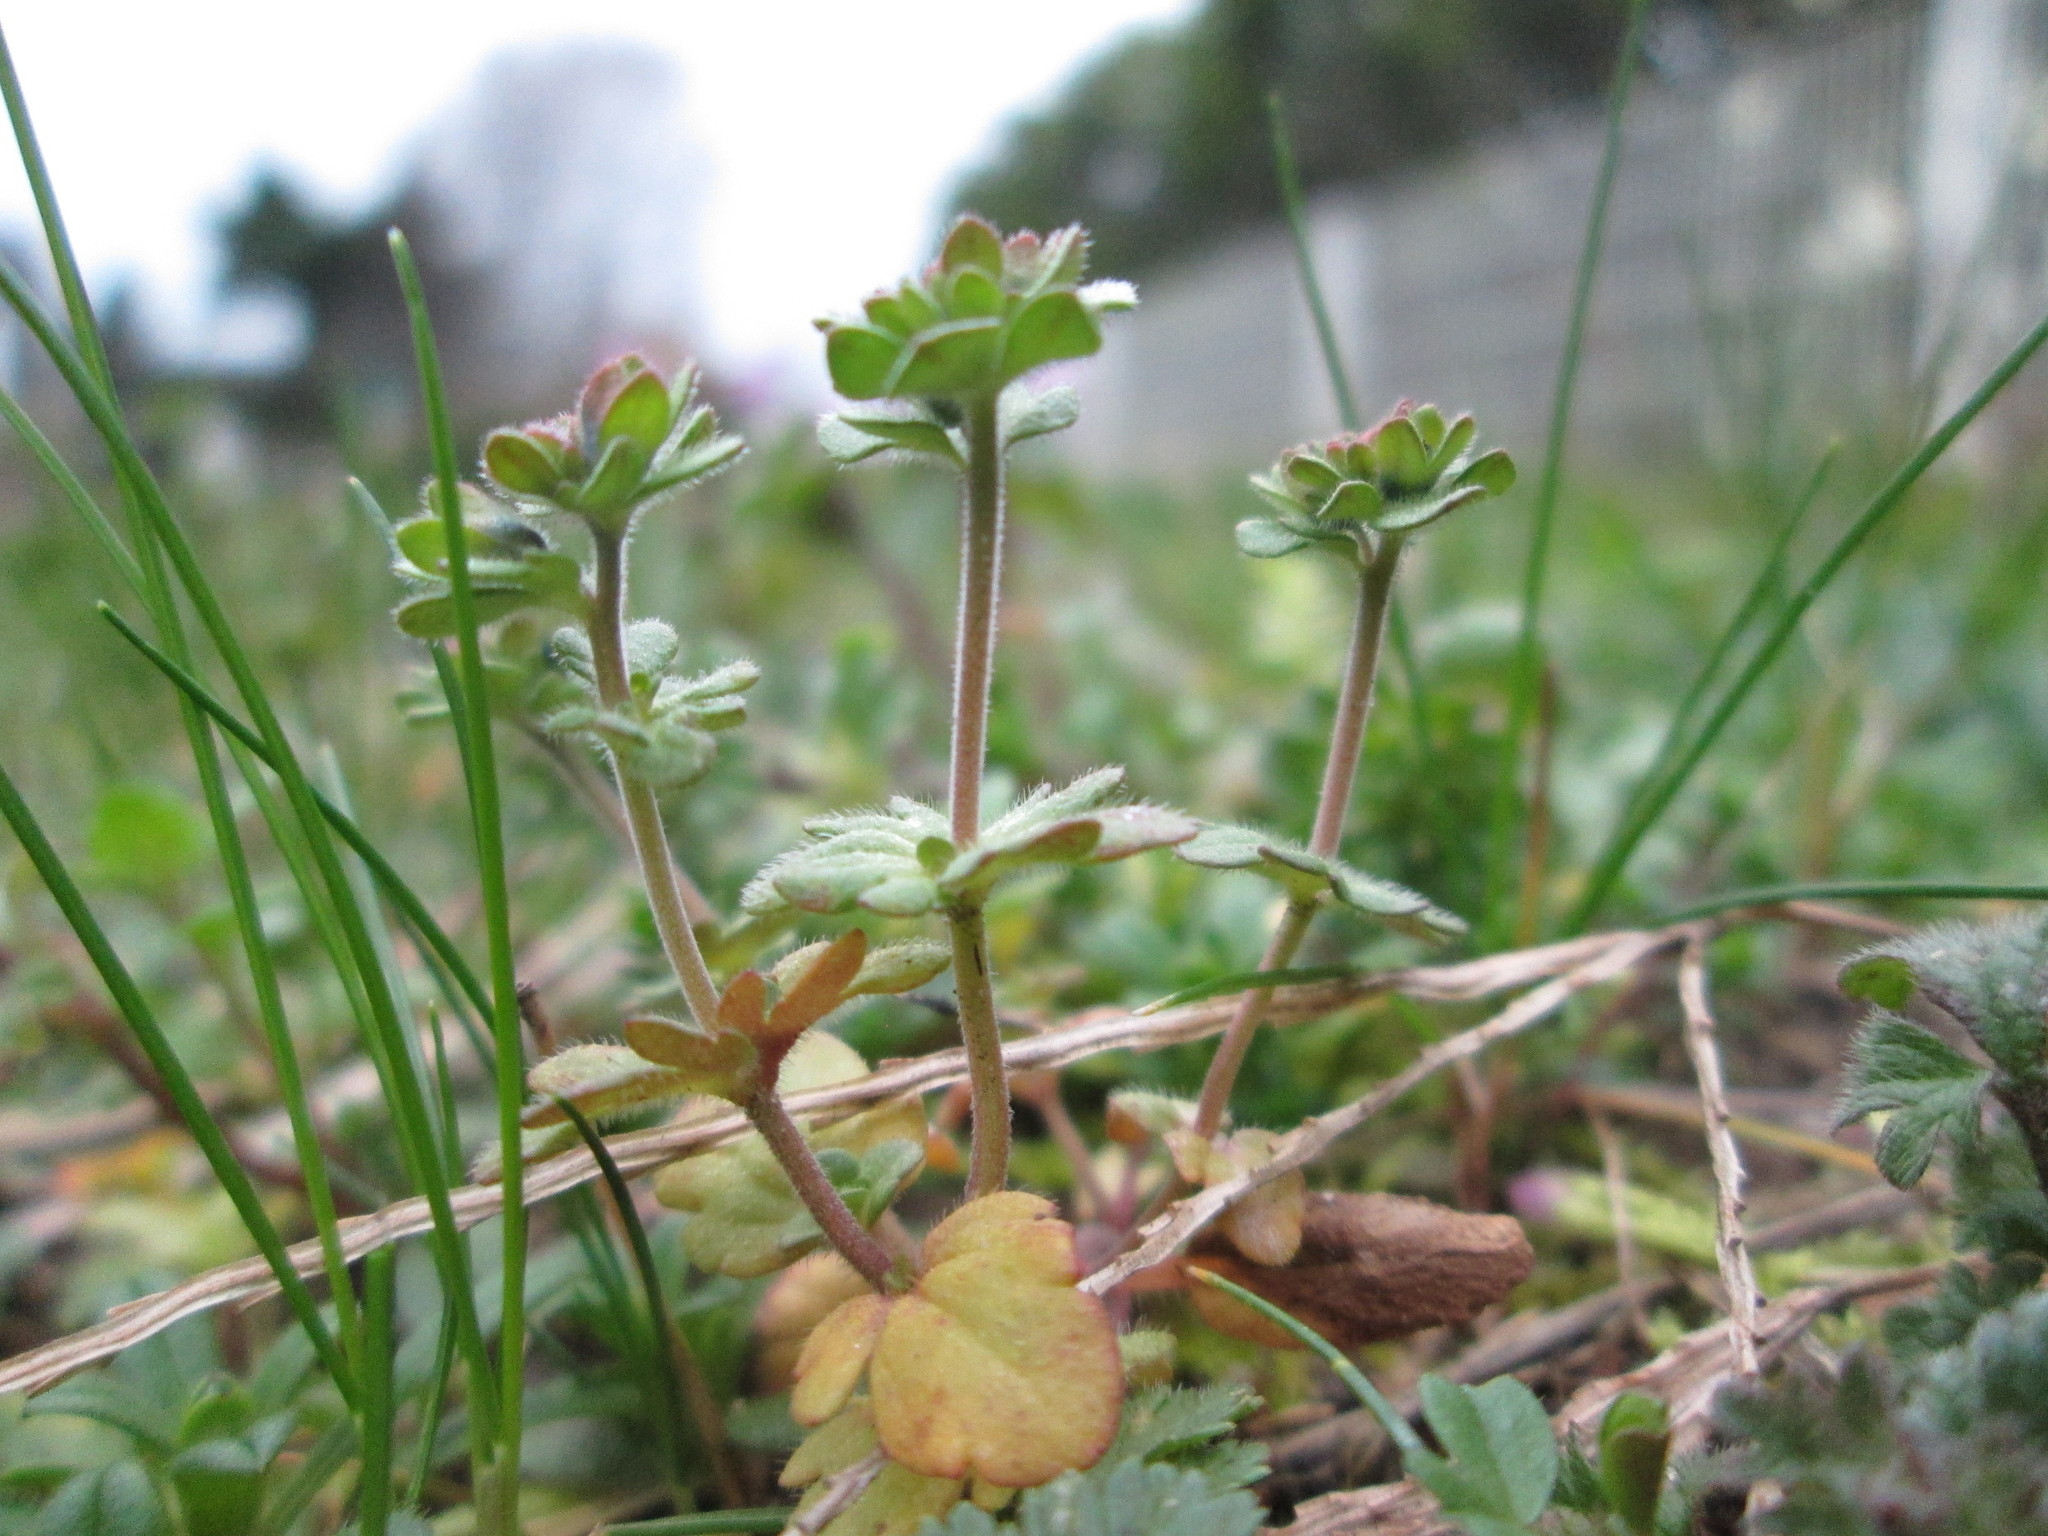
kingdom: Plantae
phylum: Tracheophyta
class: Magnoliopsida
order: Lamiales
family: Plantaginaceae
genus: Veronica
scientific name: Veronica triphyllos
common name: Fingered speedwell
